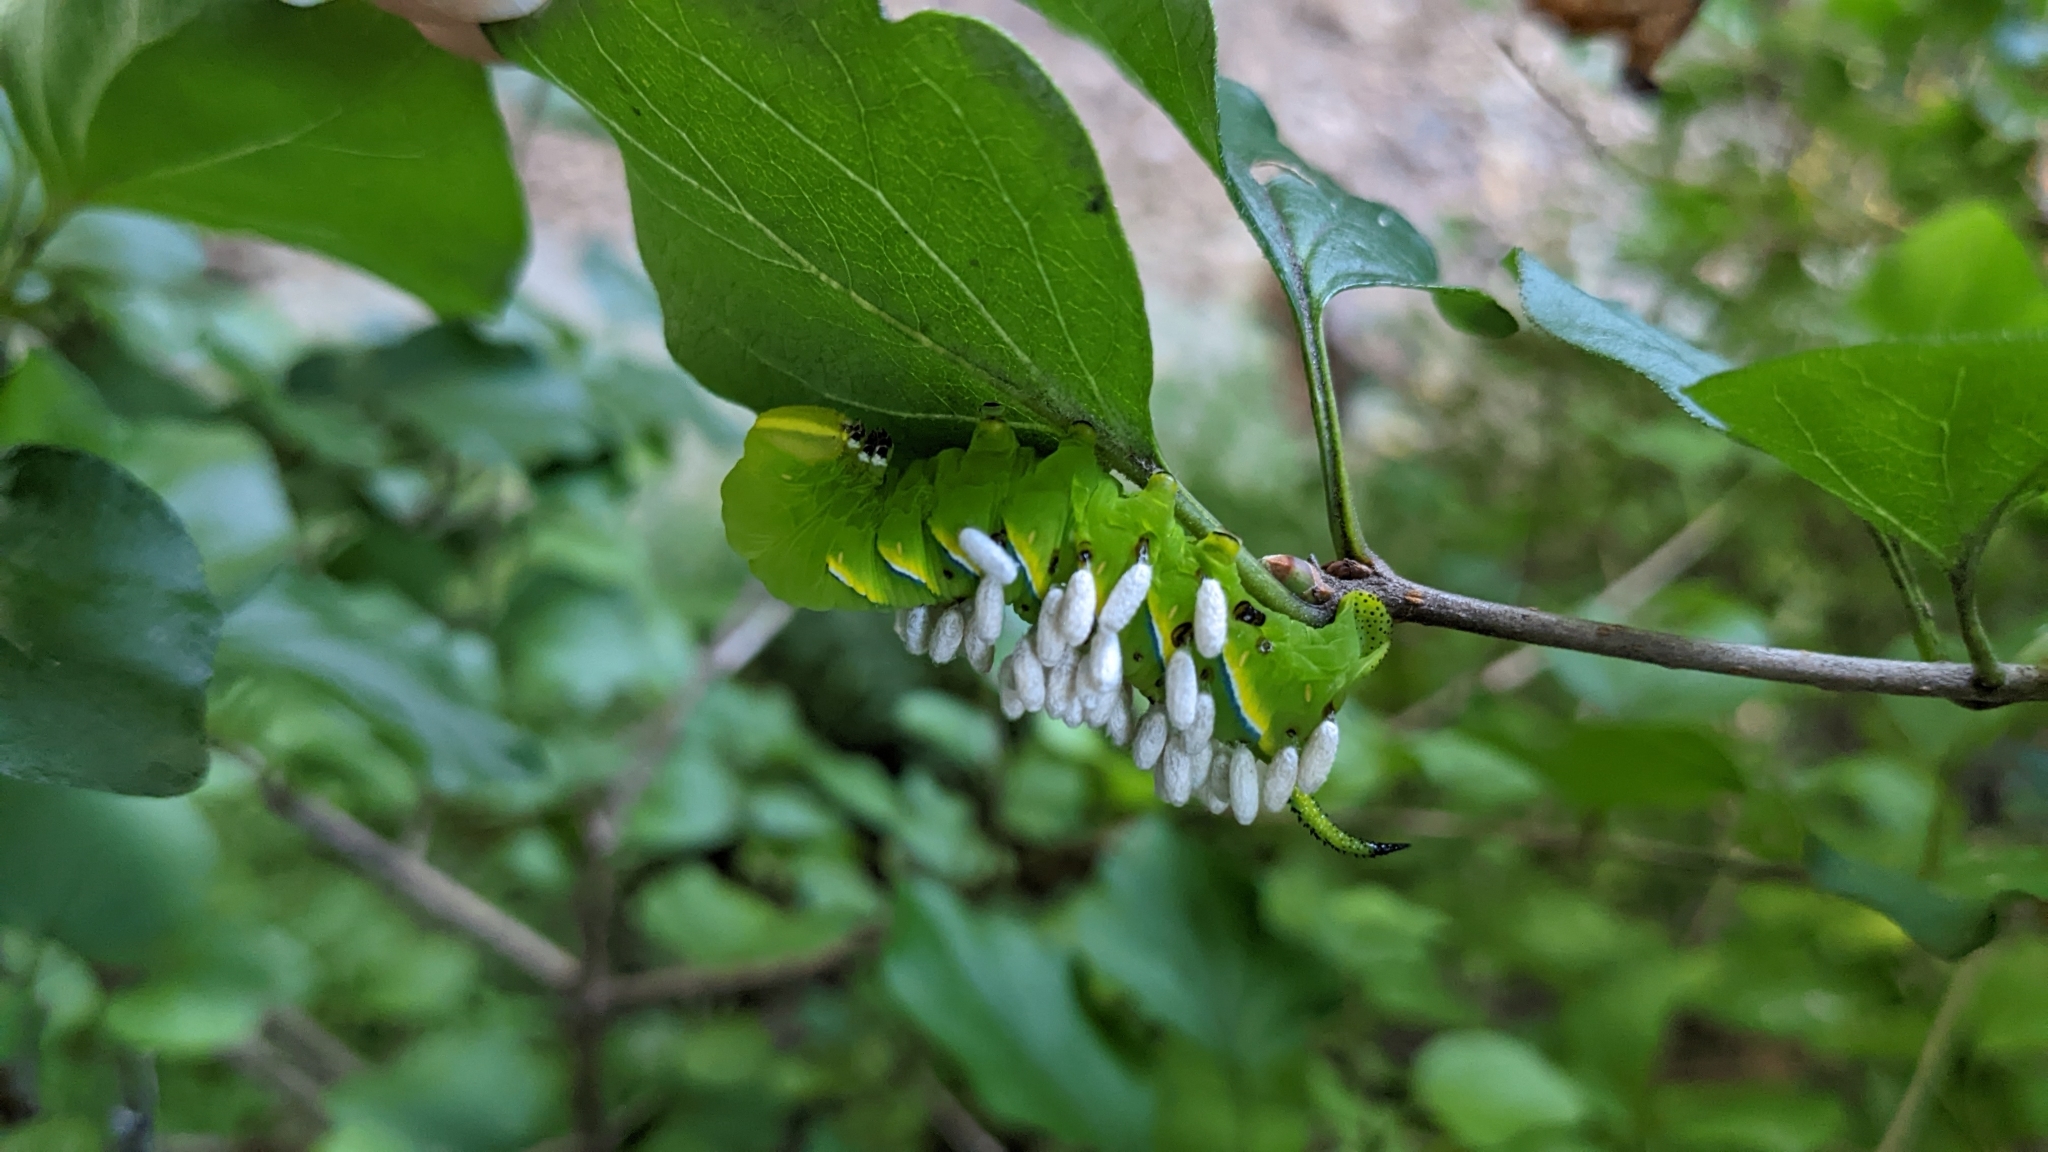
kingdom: Animalia
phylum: Arthropoda
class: Insecta
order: Hymenoptera
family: Braconidae
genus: Cotesia
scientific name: Cotesia congregata
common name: Hornworm parasitoid wasp
